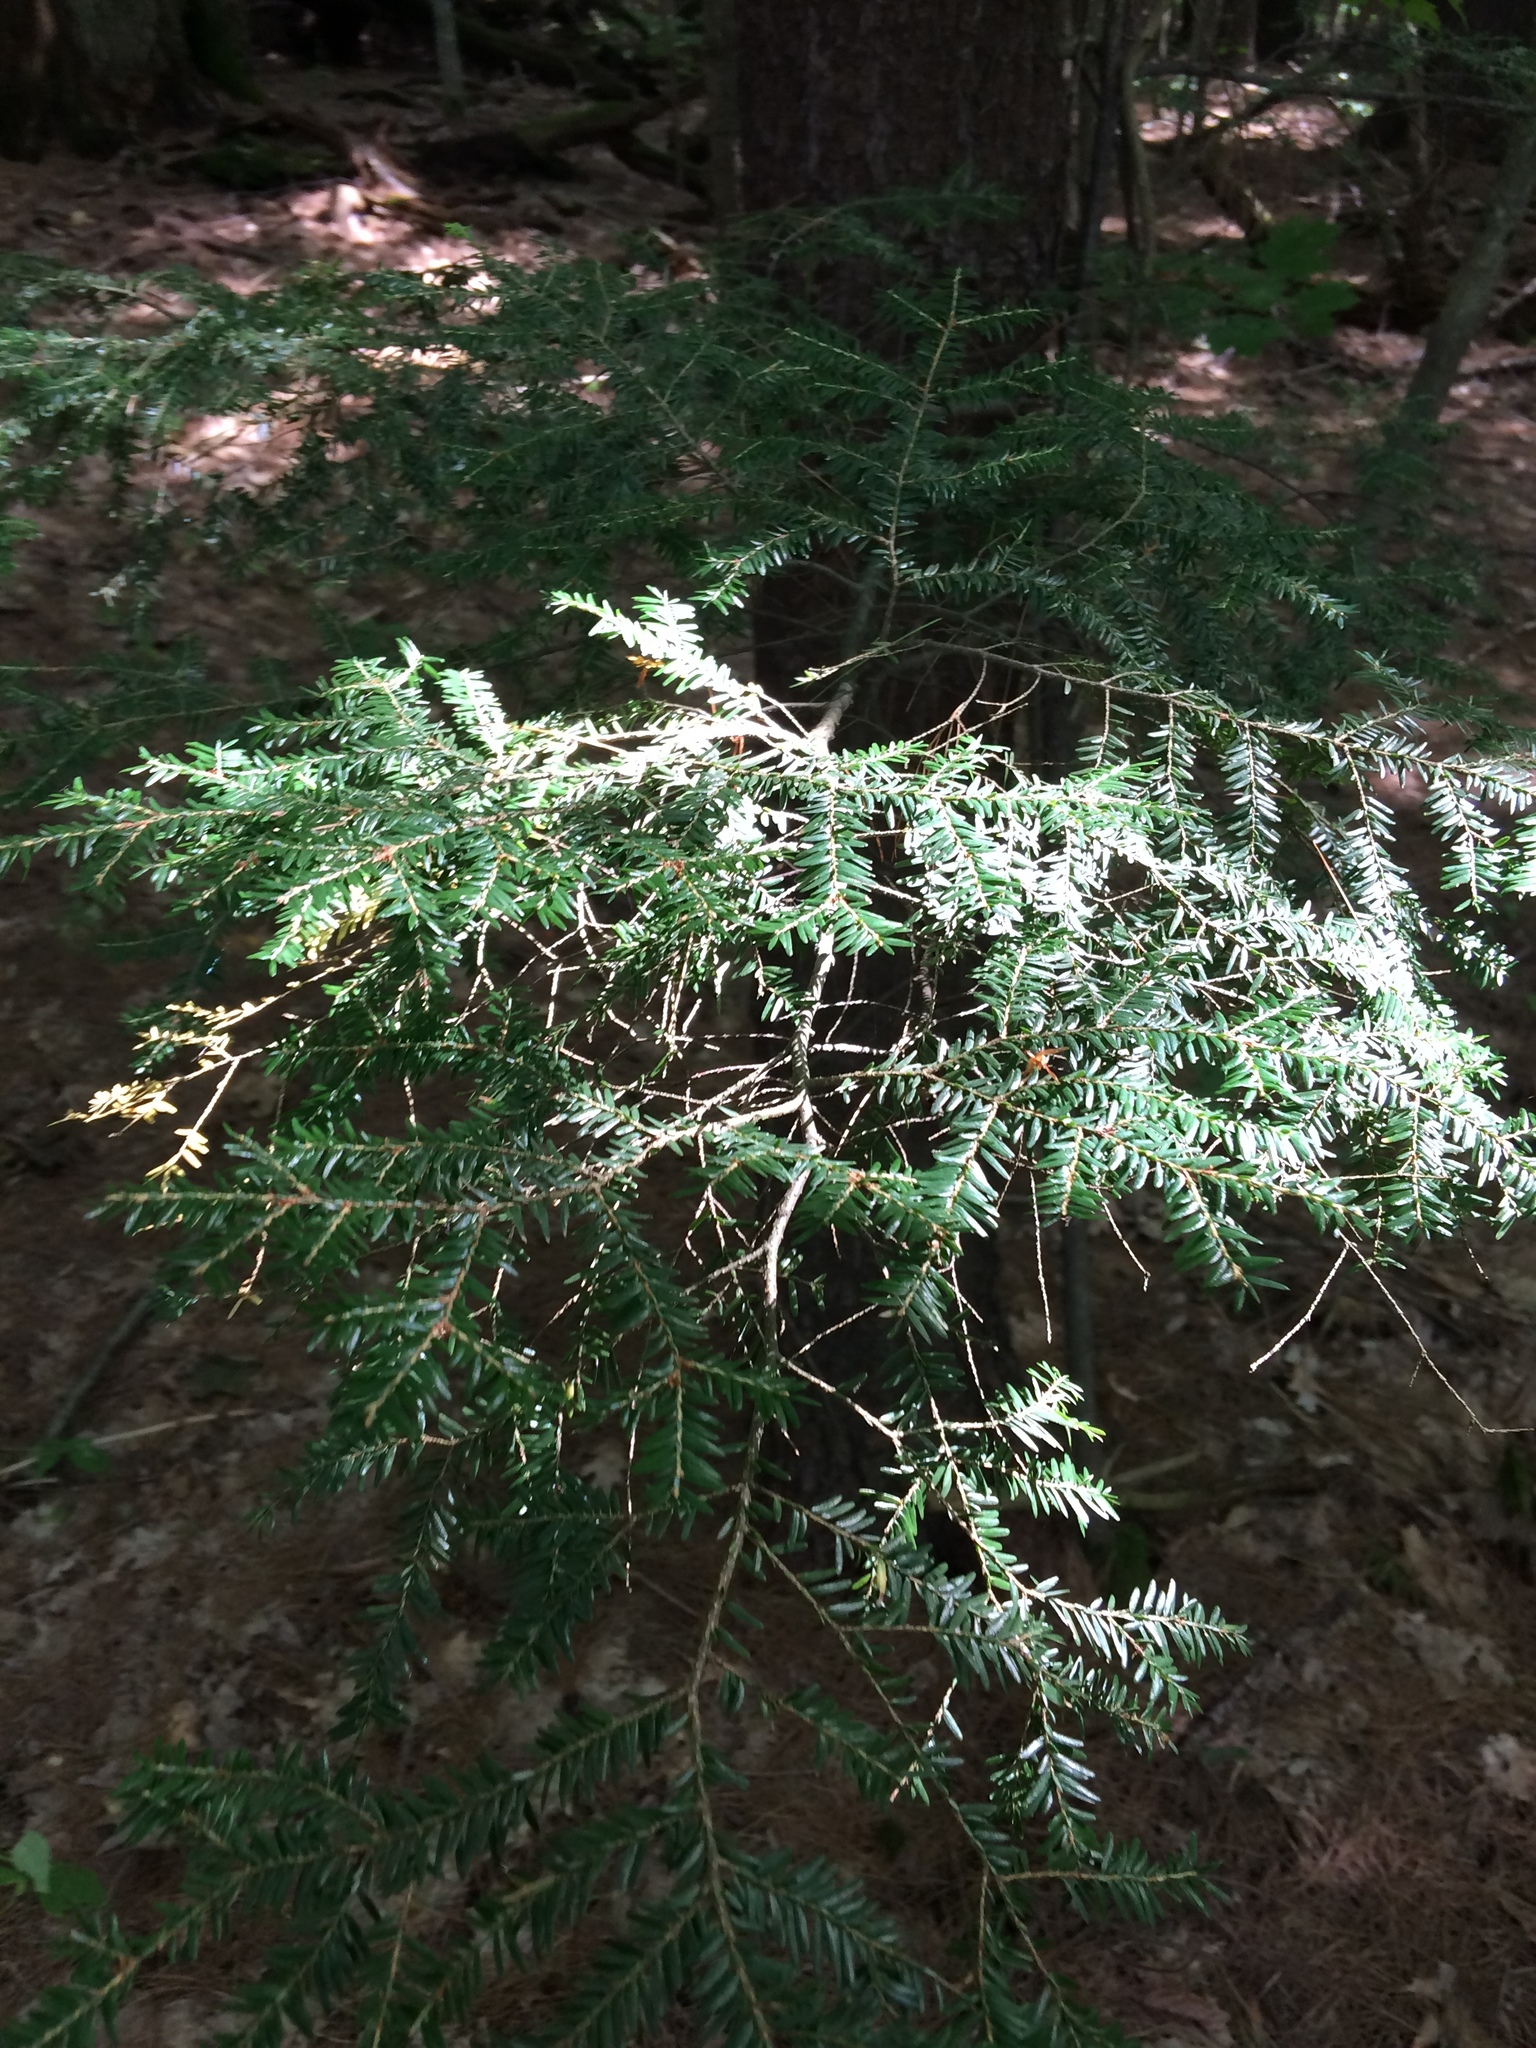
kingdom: Plantae
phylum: Tracheophyta
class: Pinopsida
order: Pinales
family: Pinaceae
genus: Tsuga
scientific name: Tsuga canadensis
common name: Eastern hemlock
